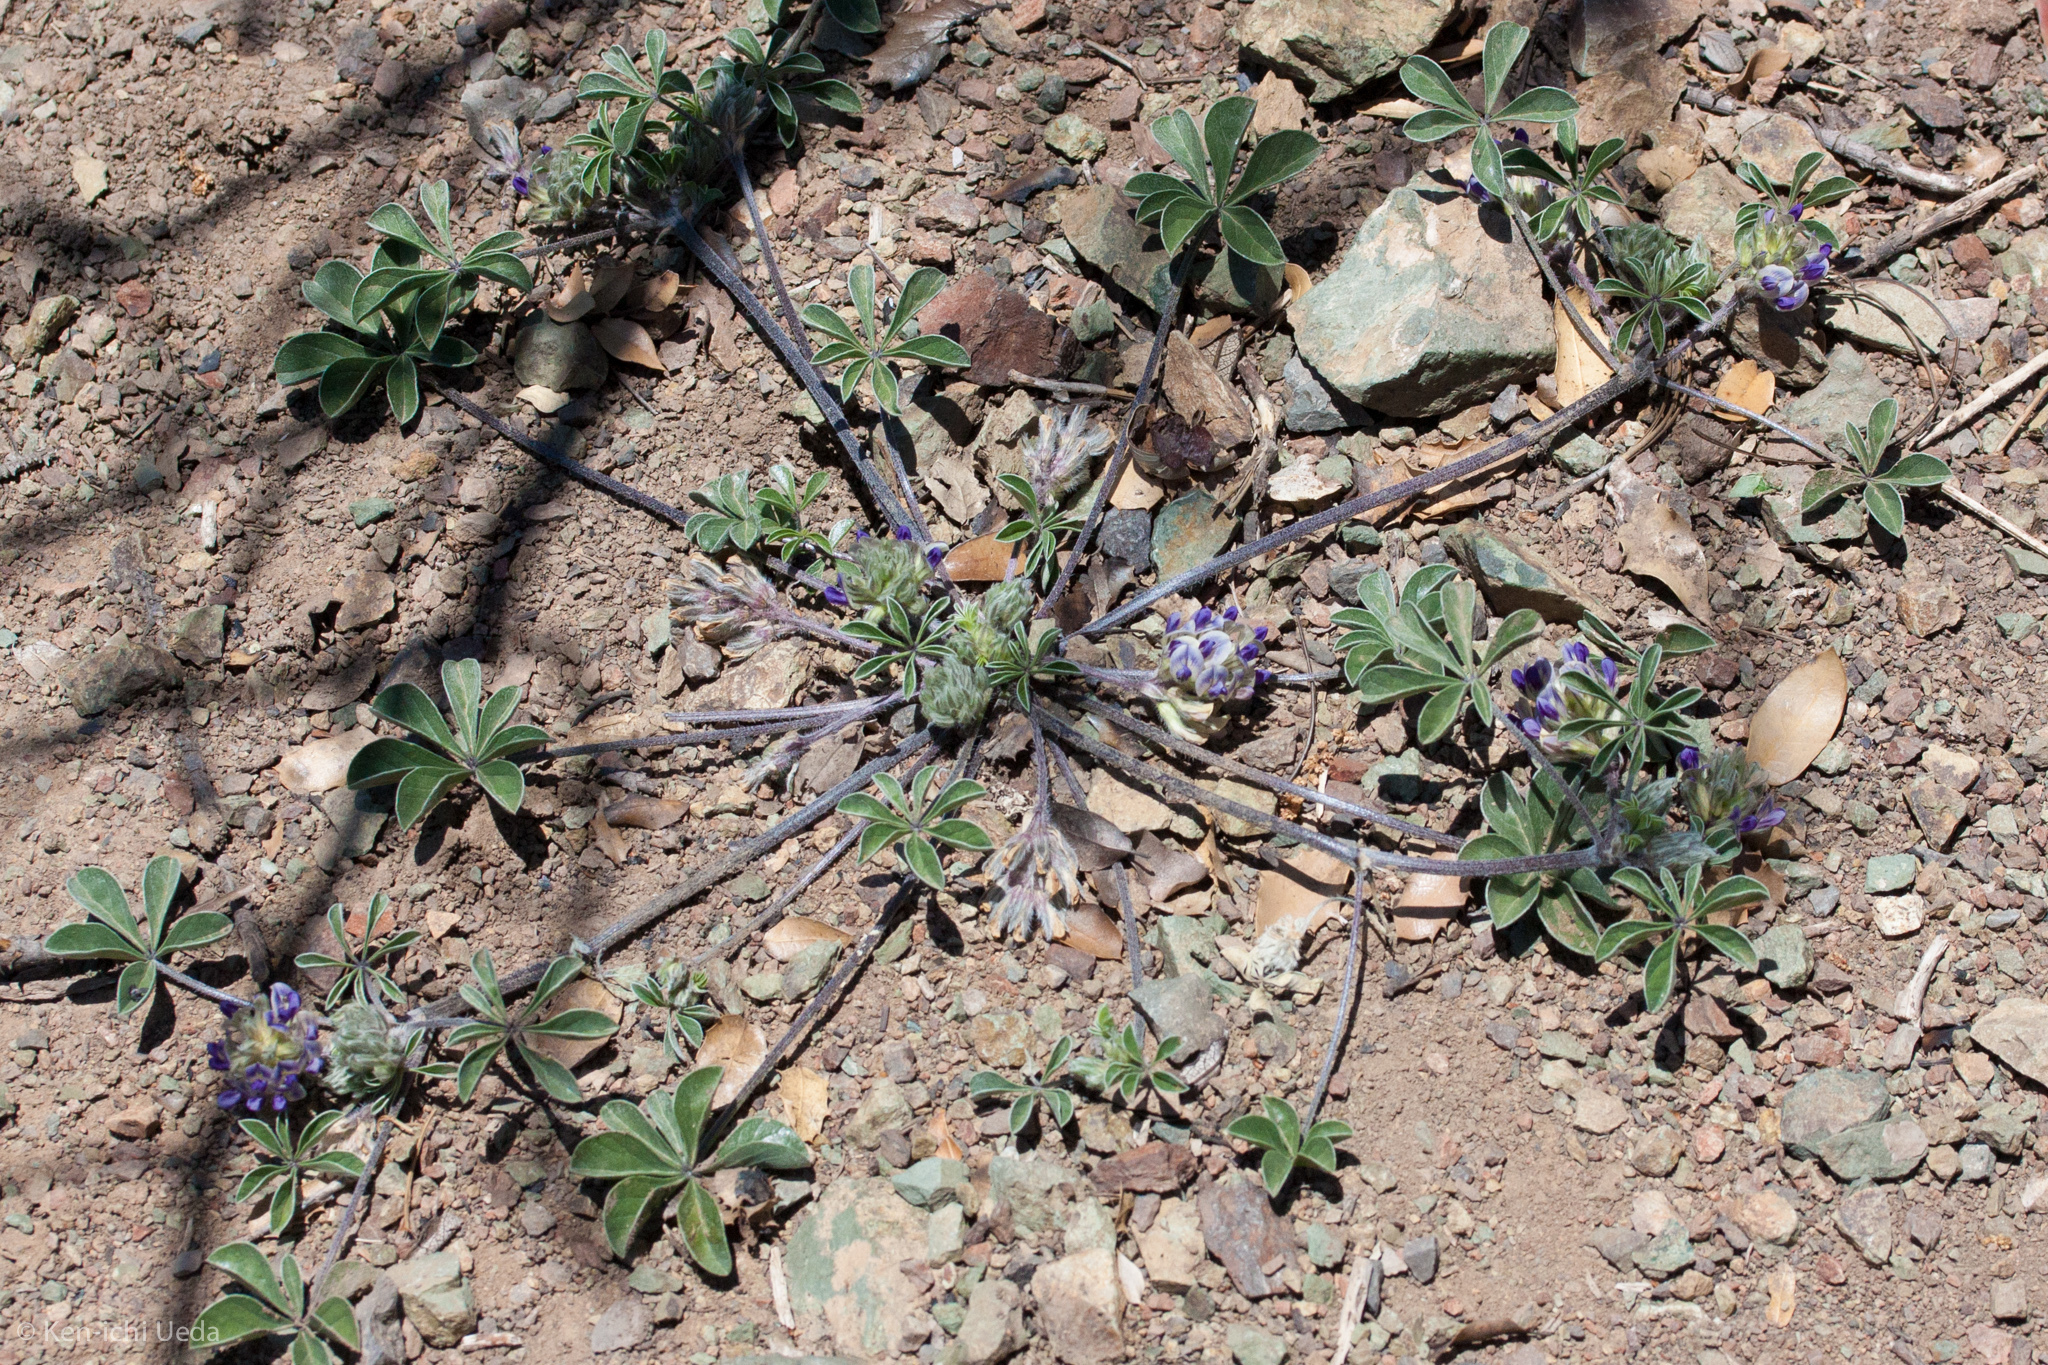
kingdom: Plantae
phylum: Tracheophyta
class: Magnoliopsida
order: Fabales
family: Fabaceae
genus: Pediomelum
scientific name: Pediomelum californicum
